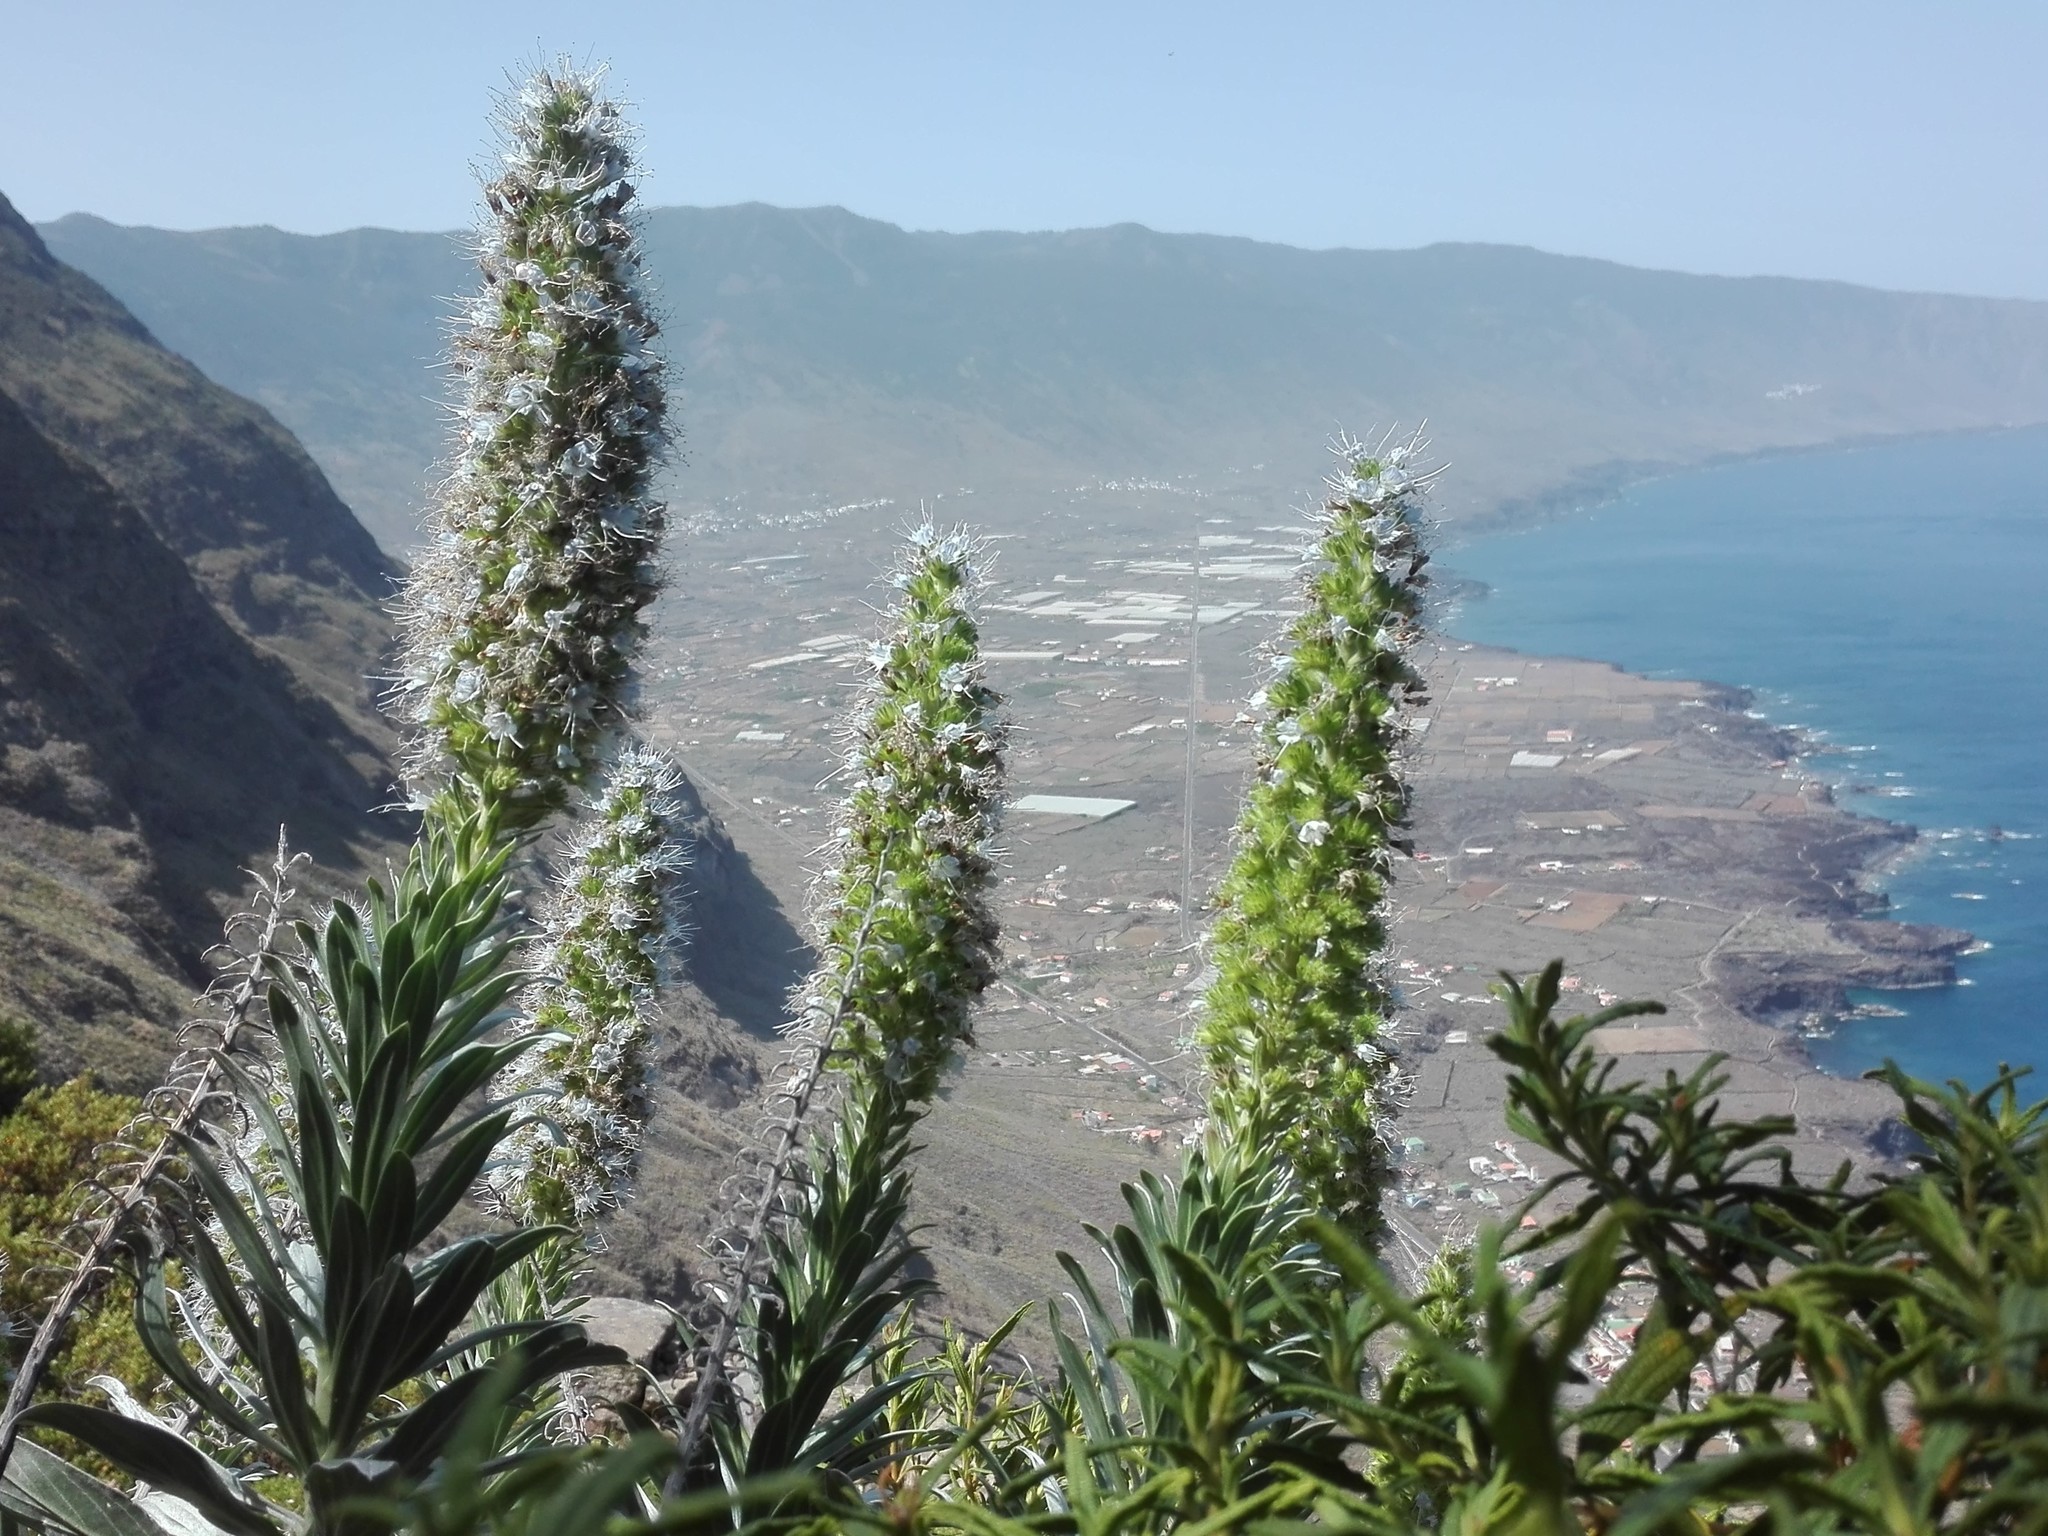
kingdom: Plantae
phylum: Tracheophyta
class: Magnoliopsida
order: Boraginales
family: Boraginaceae
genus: Echium
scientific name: Echium hierrense
